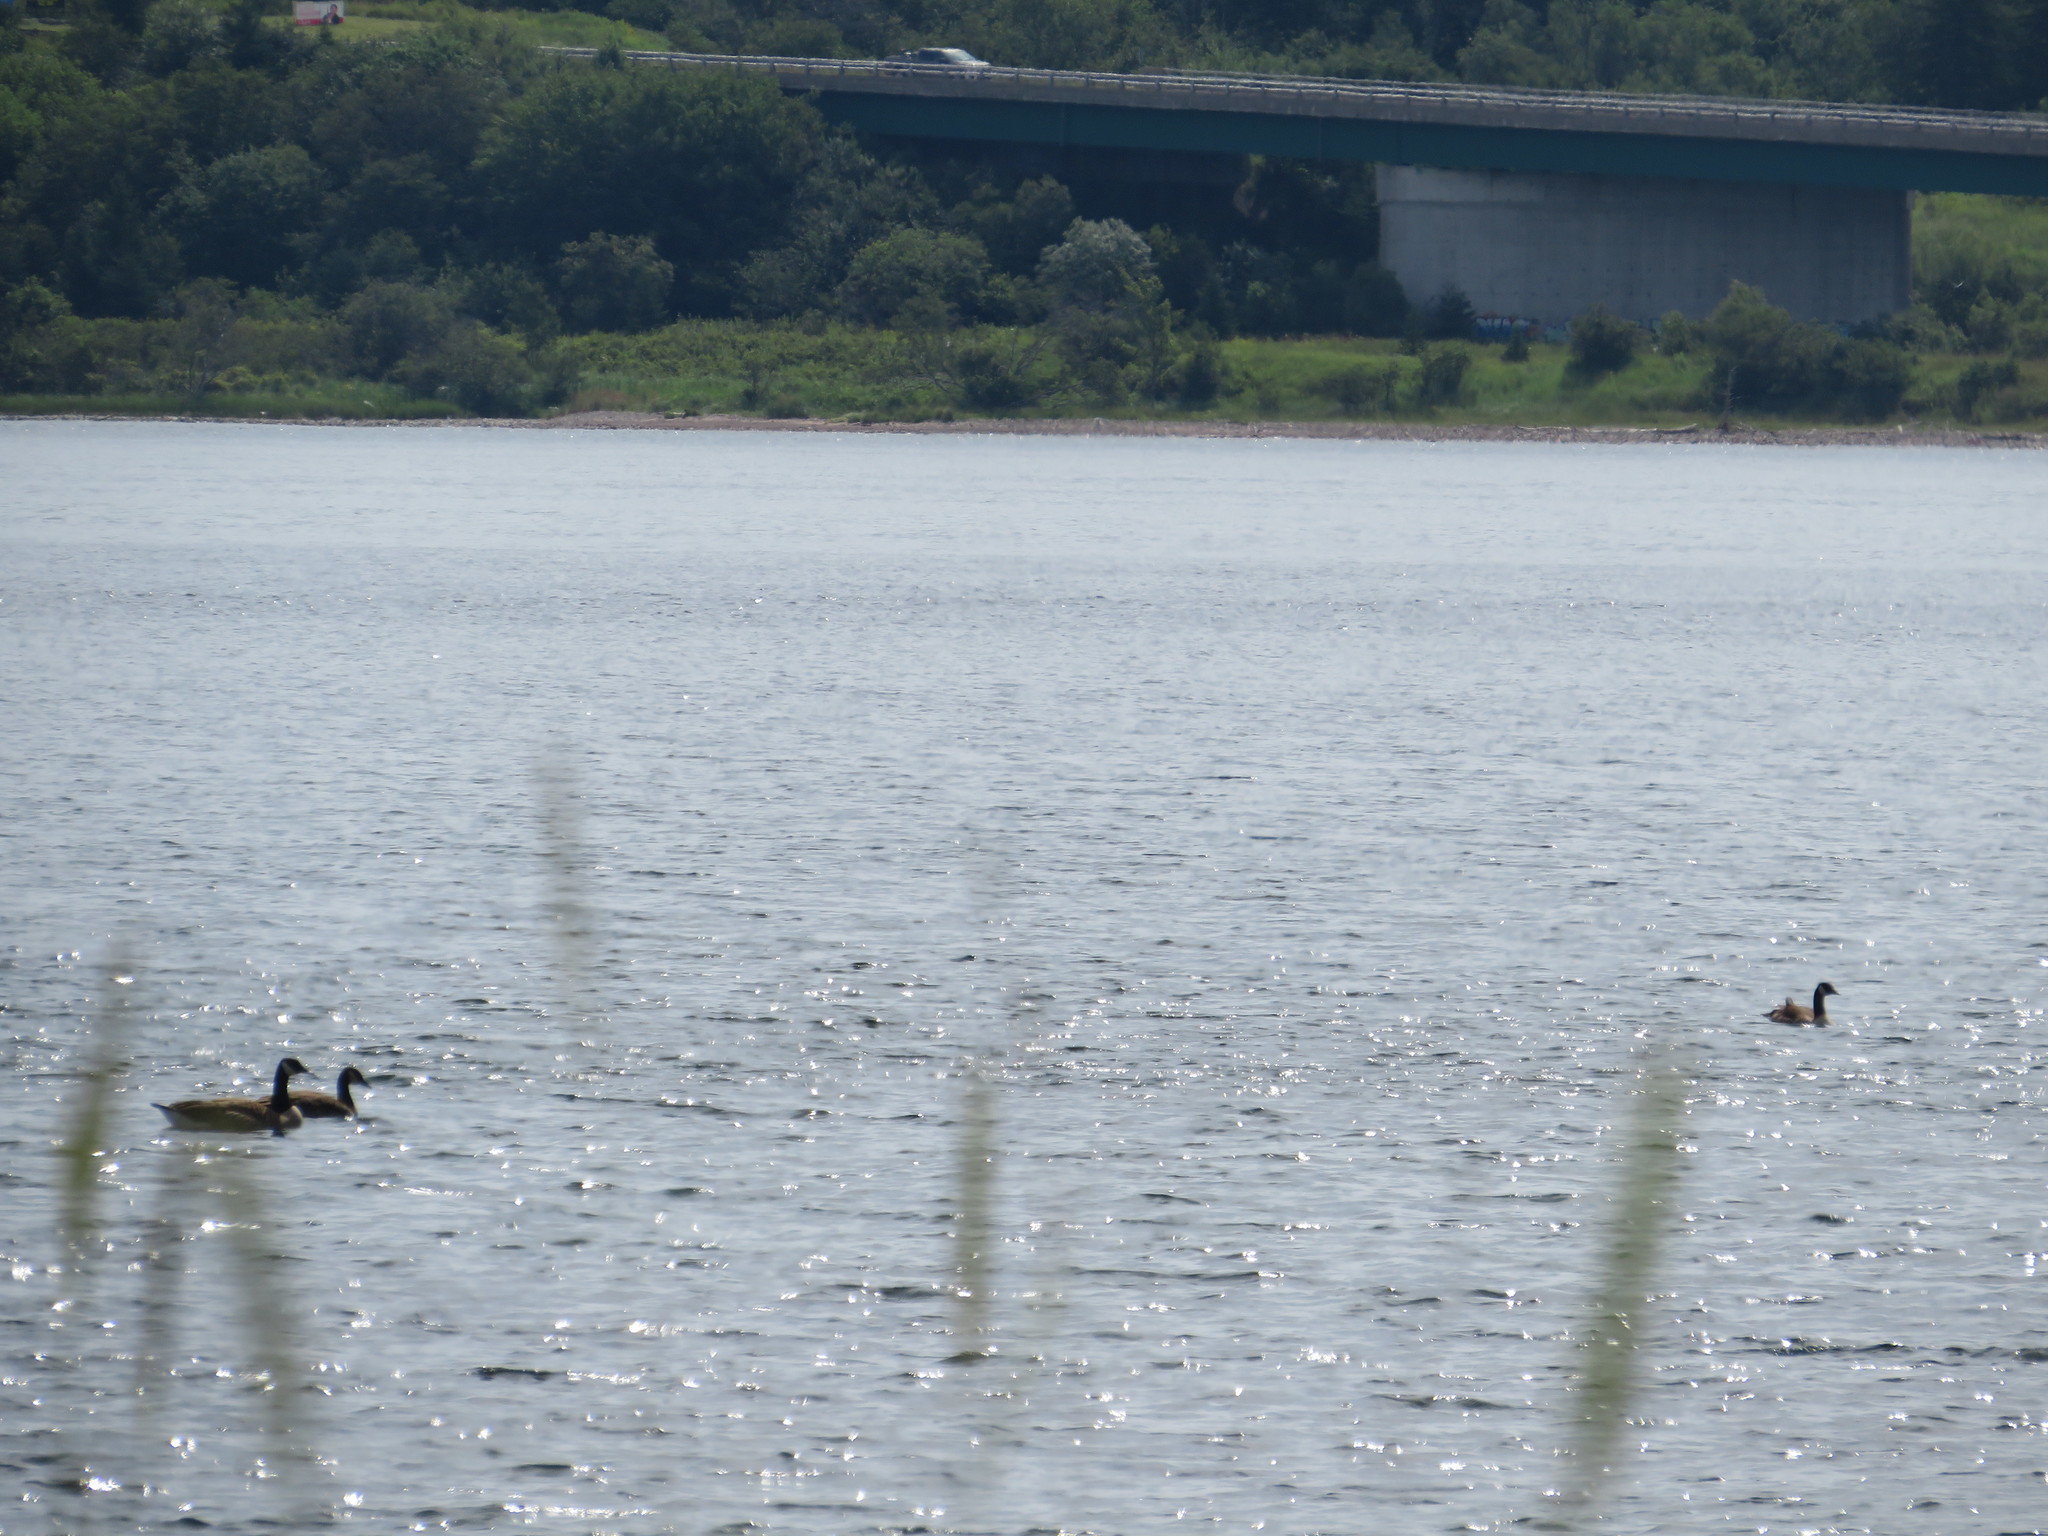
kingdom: Animalia
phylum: Chordata
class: Aves
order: Anseriformes
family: Anatidae
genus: Branta
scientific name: Branta canadensis
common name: Canada goose
